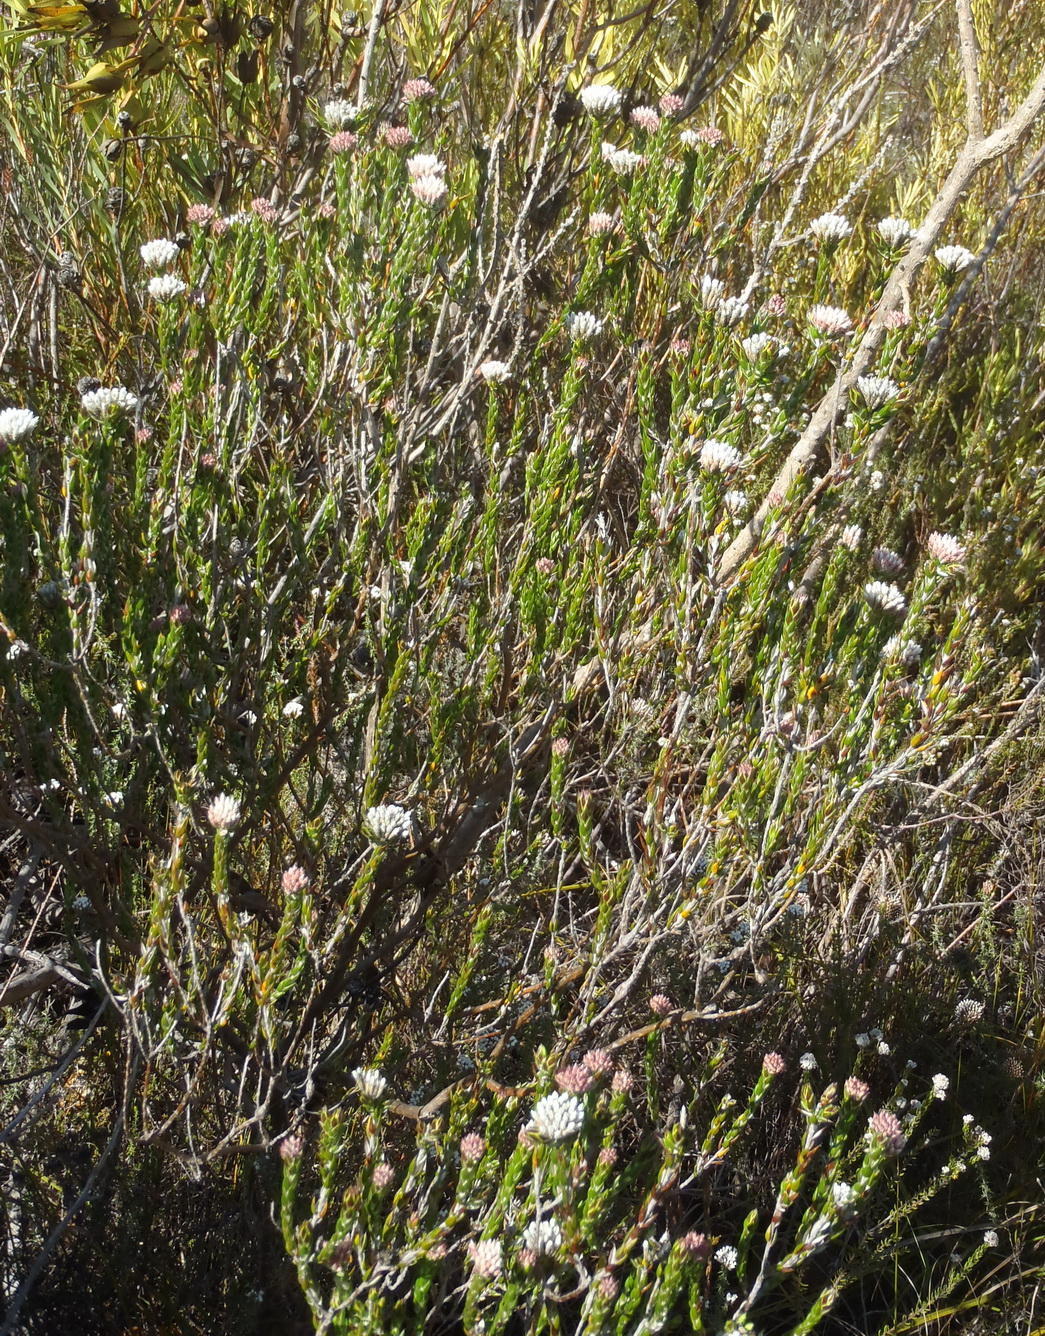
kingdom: Plantae
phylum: Tracheophyta
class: Magnoliopsida
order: Asterales
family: Asteraceae
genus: Metalasia
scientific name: Metalasia pulcherrima
